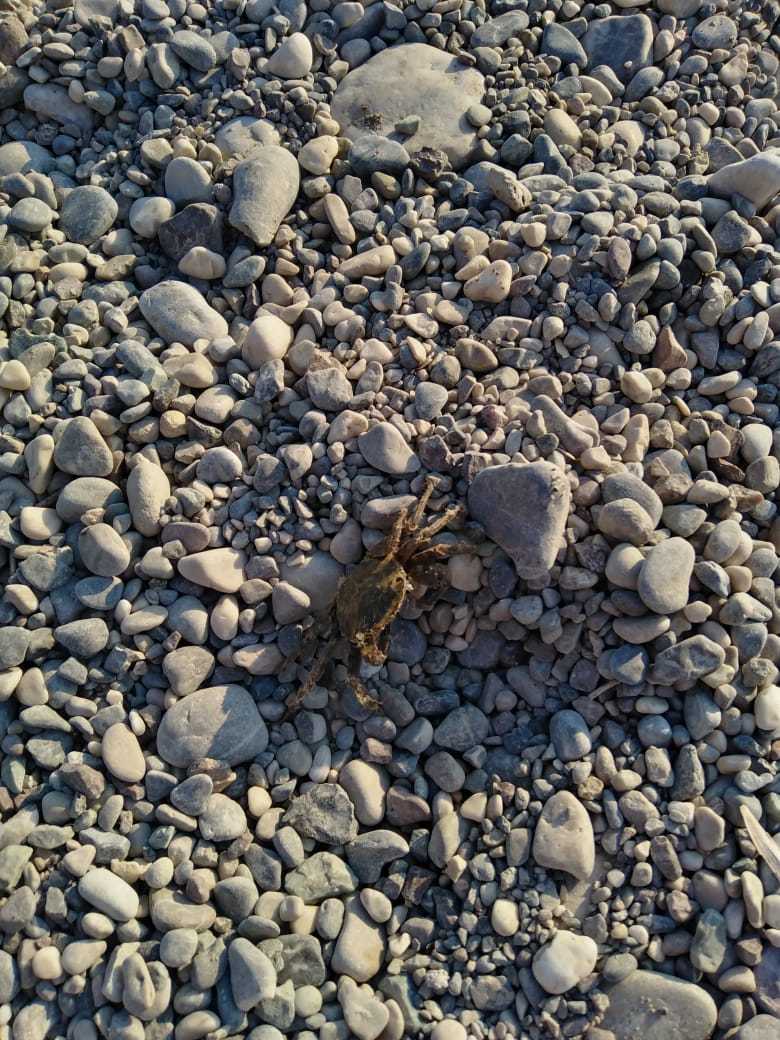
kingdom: Animalia
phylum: Arthropoda
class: Malacostraca
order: Decapoda
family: Grapsidae
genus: Pachygrapsus
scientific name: Pachygrapsus marmoratus
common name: Marbled rock crab
